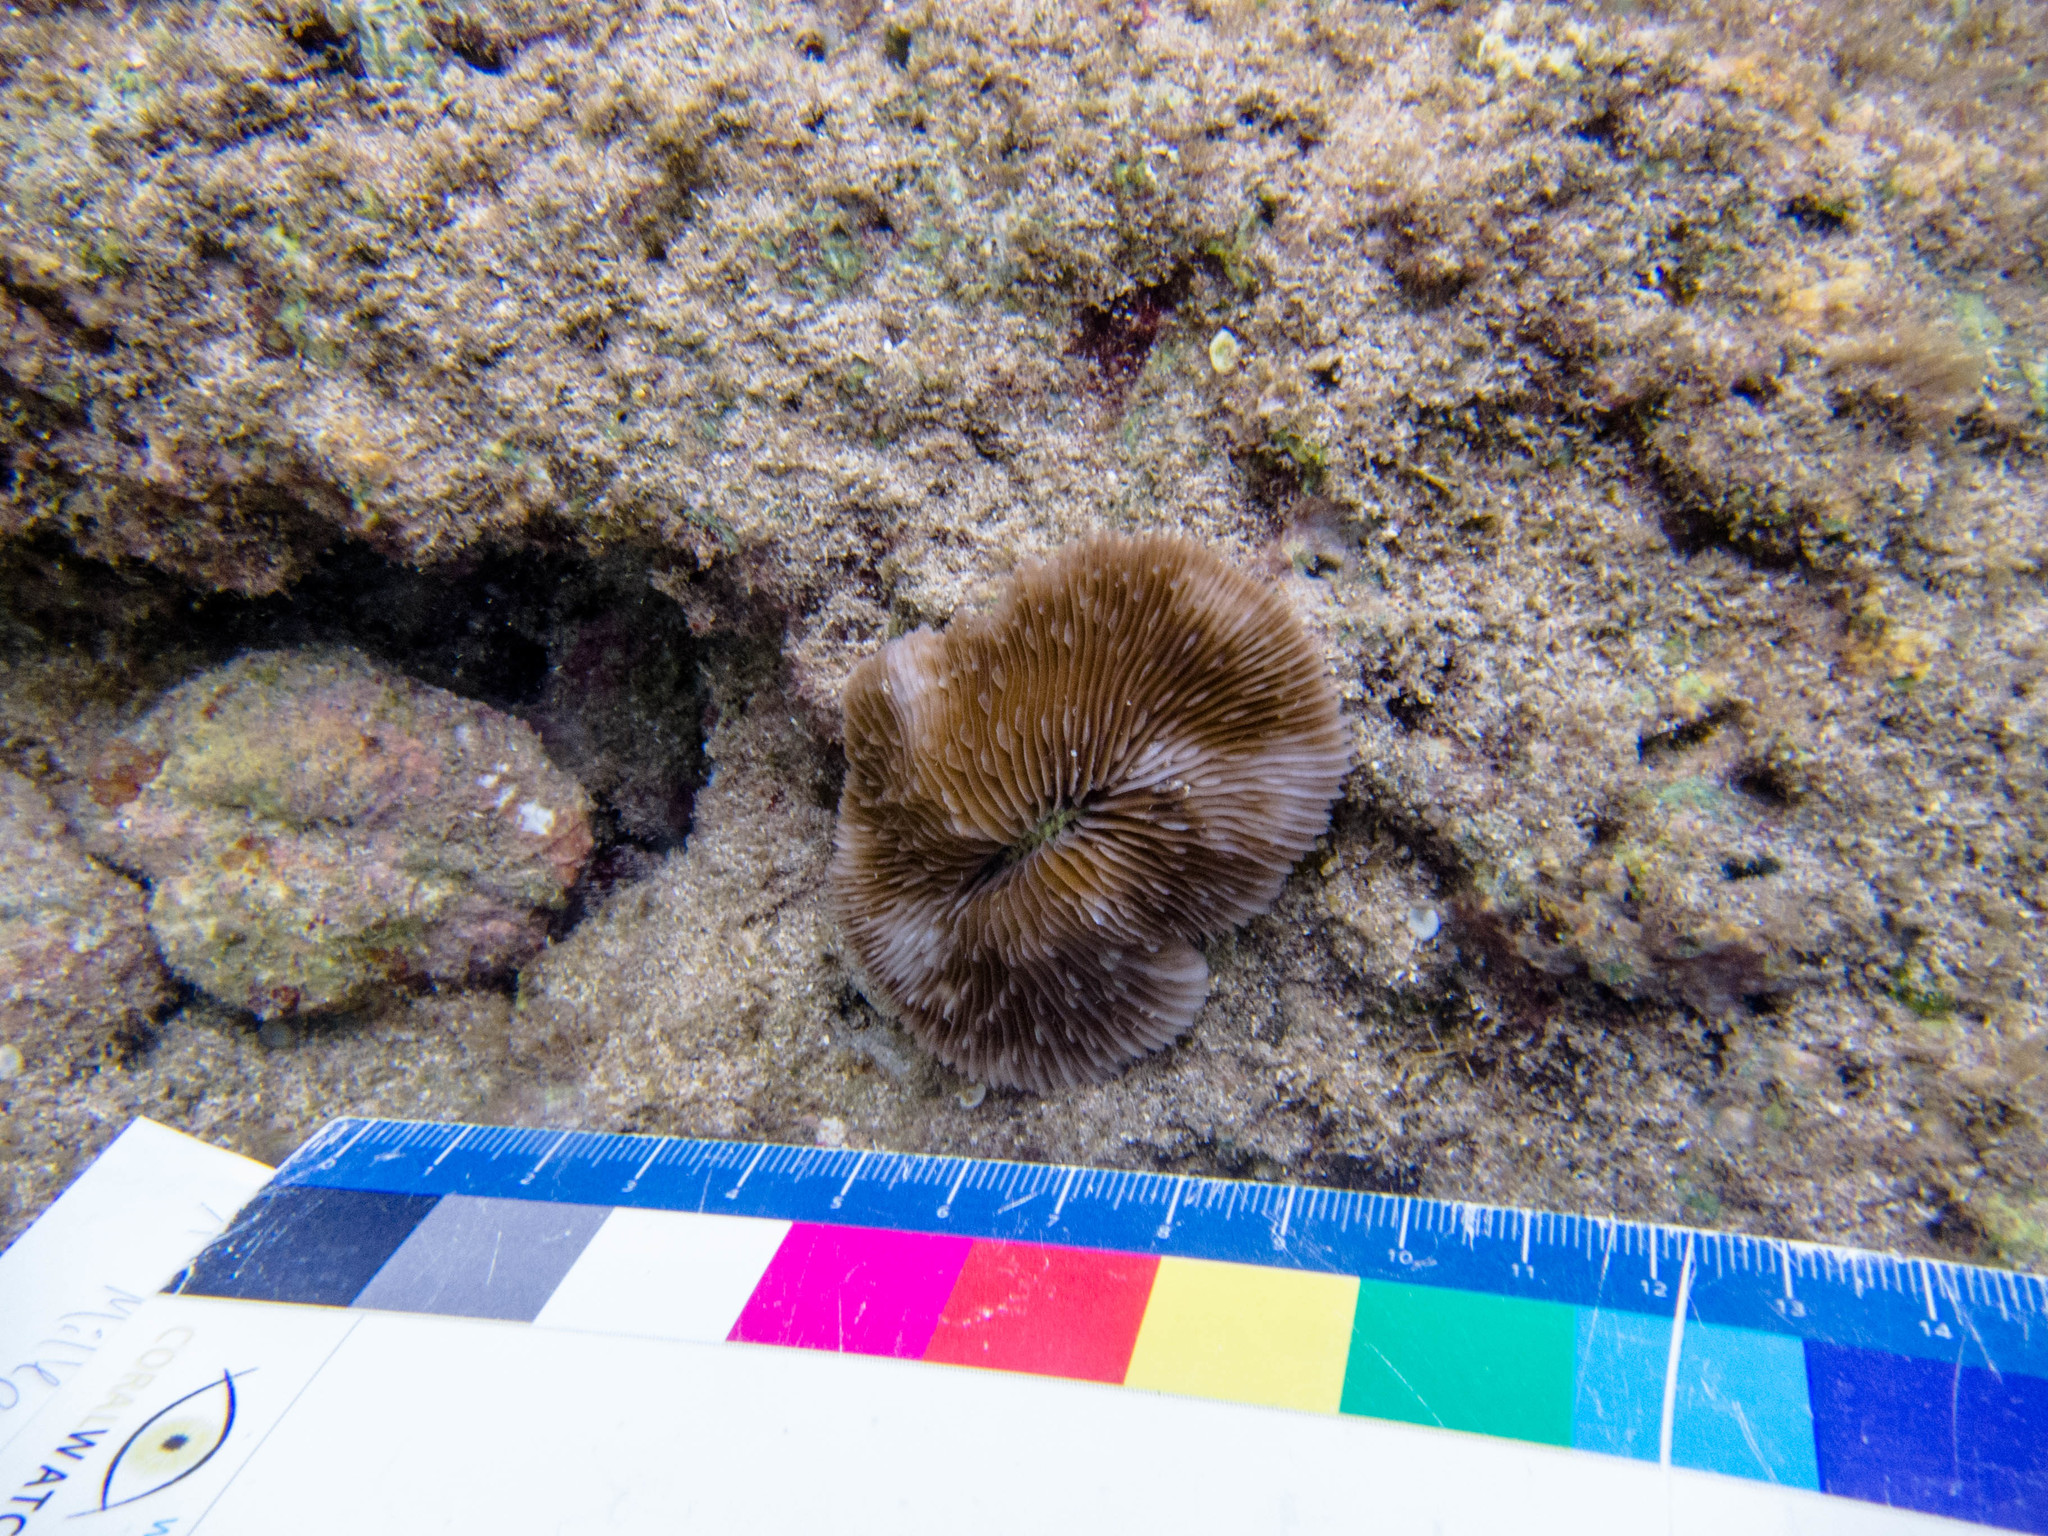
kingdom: Animalia
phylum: Cnidaria
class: Anthozoa
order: Scleractinia
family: Fungiidae
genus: Lobactis
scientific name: Lobactis scutaria
